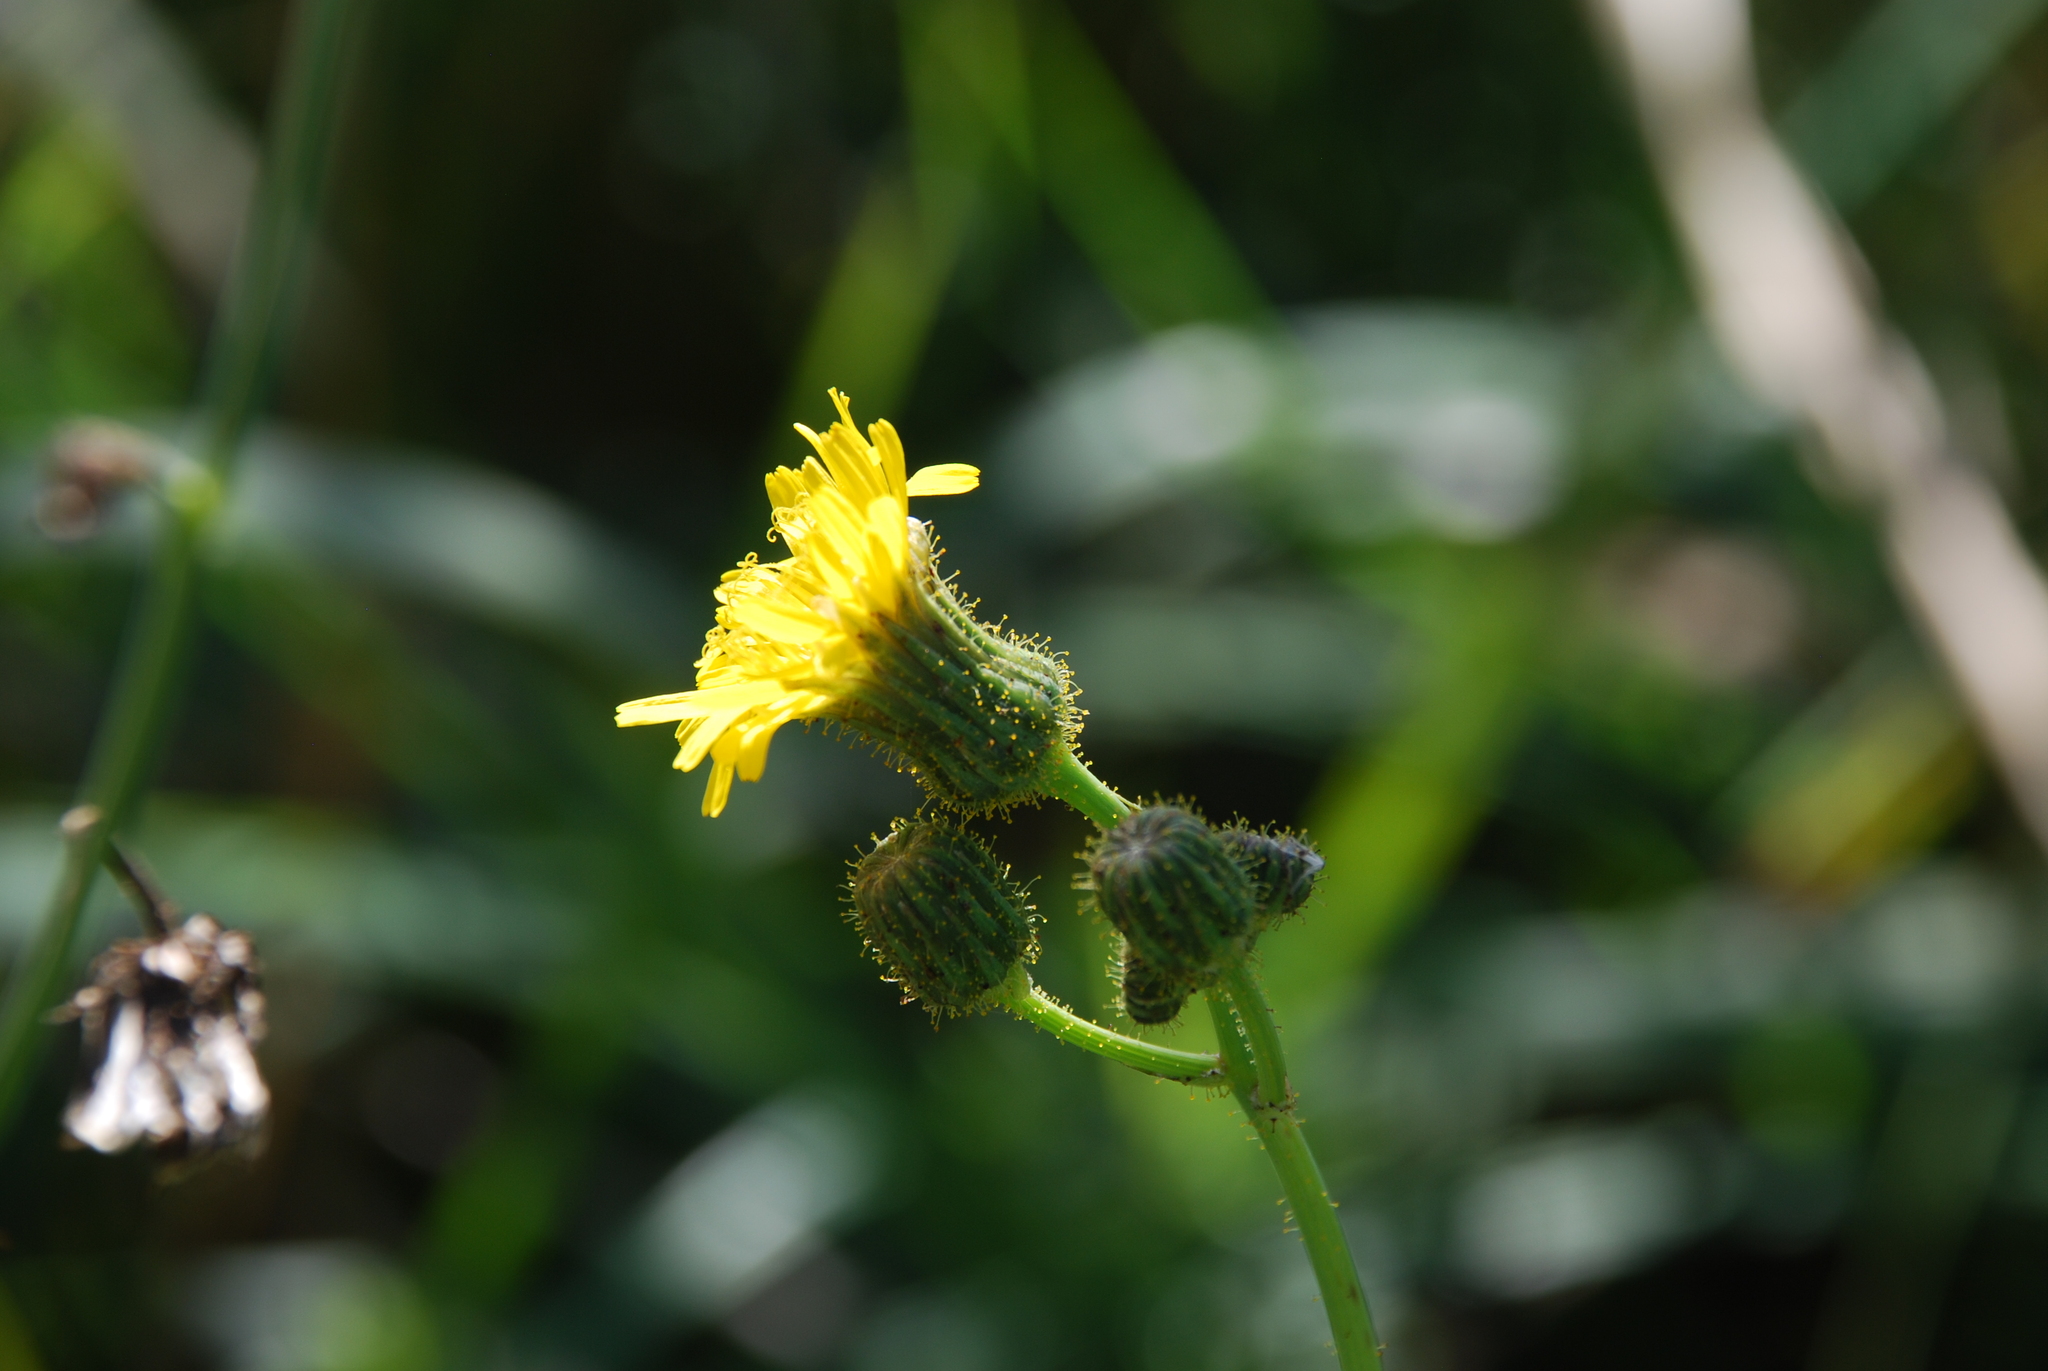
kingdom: Plantae
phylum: Tracheophyta
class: Magnoliopsida
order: Asterales
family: Asteraceae
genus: Sonchus
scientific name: Sonchus arvensis
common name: Perennial sow-thistle
